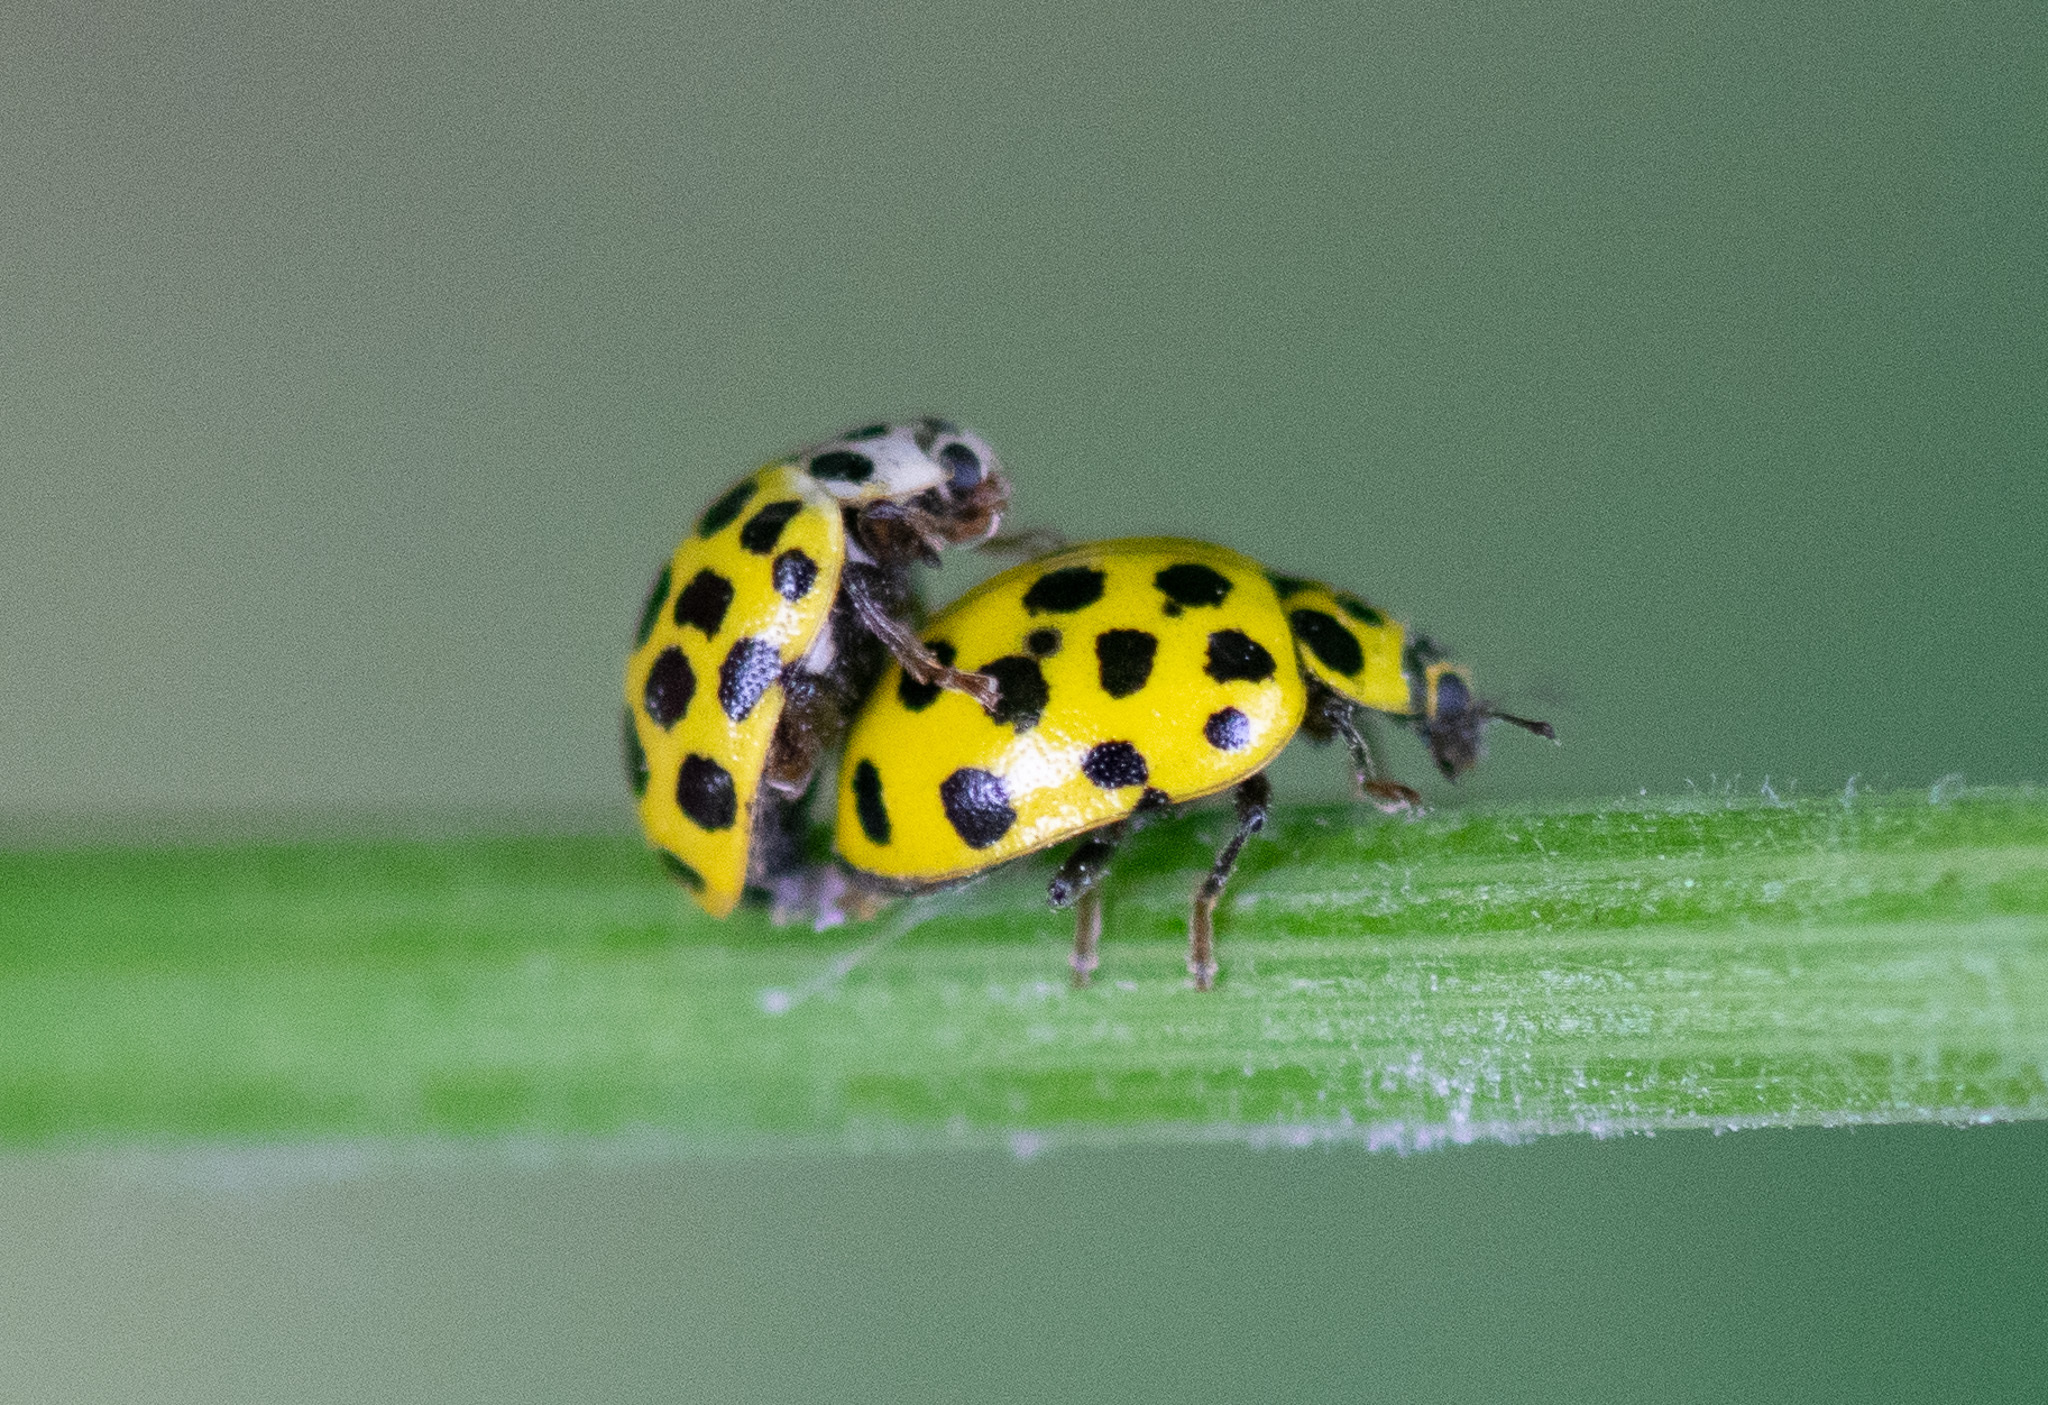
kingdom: Animalia
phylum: Arthropoda
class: Insecta
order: Coleoptera
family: Coccinellidae
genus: Psyllobora
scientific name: Psyllobora vigintiduopunctata
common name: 22-spot ladybird
